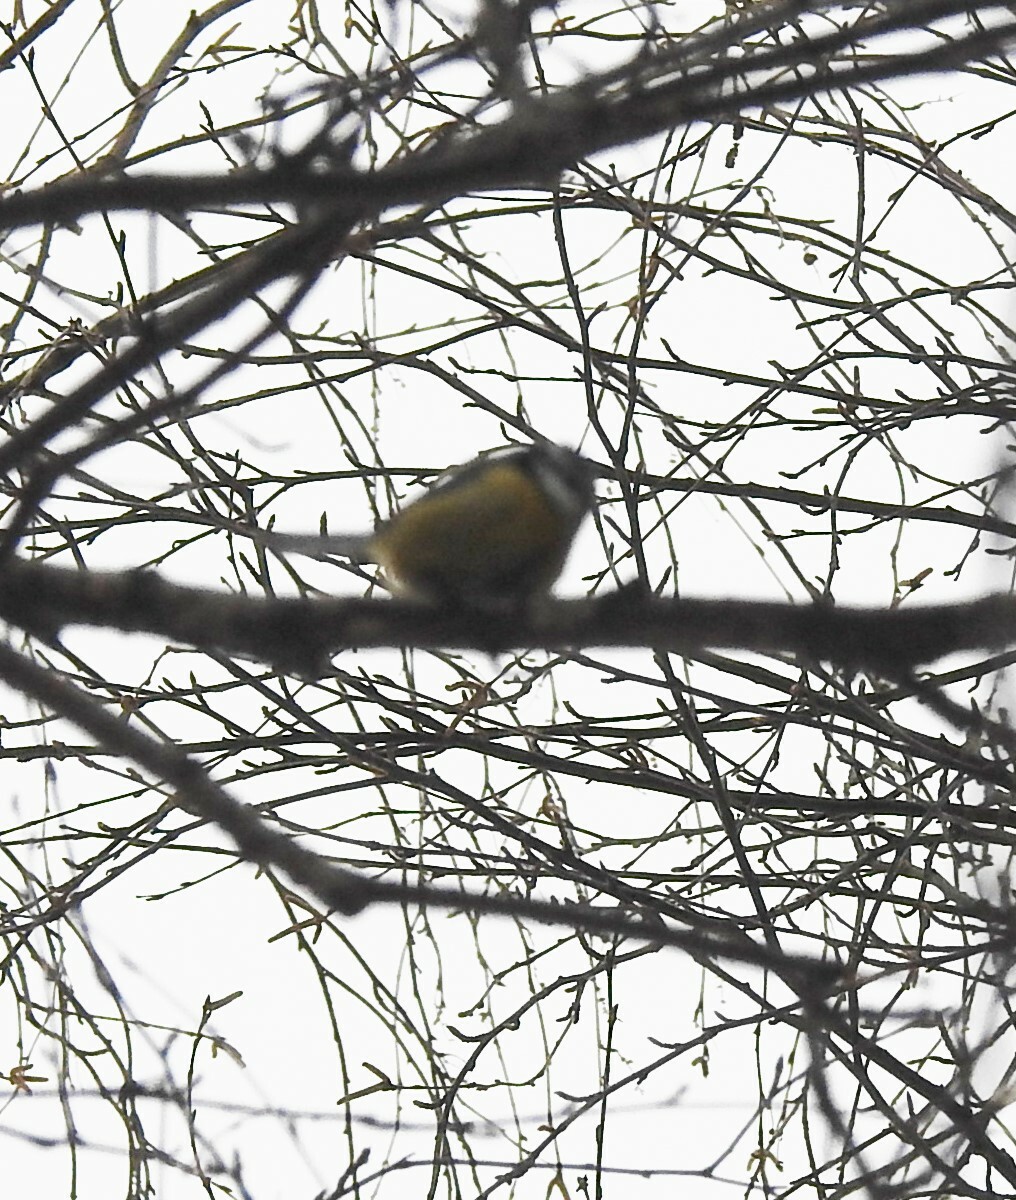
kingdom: Animalia
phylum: Chordata
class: Aves
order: Passeriformes
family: Paridae
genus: Cyanistes
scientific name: Cyanistes caeruleus
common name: Eurasian blue tit
